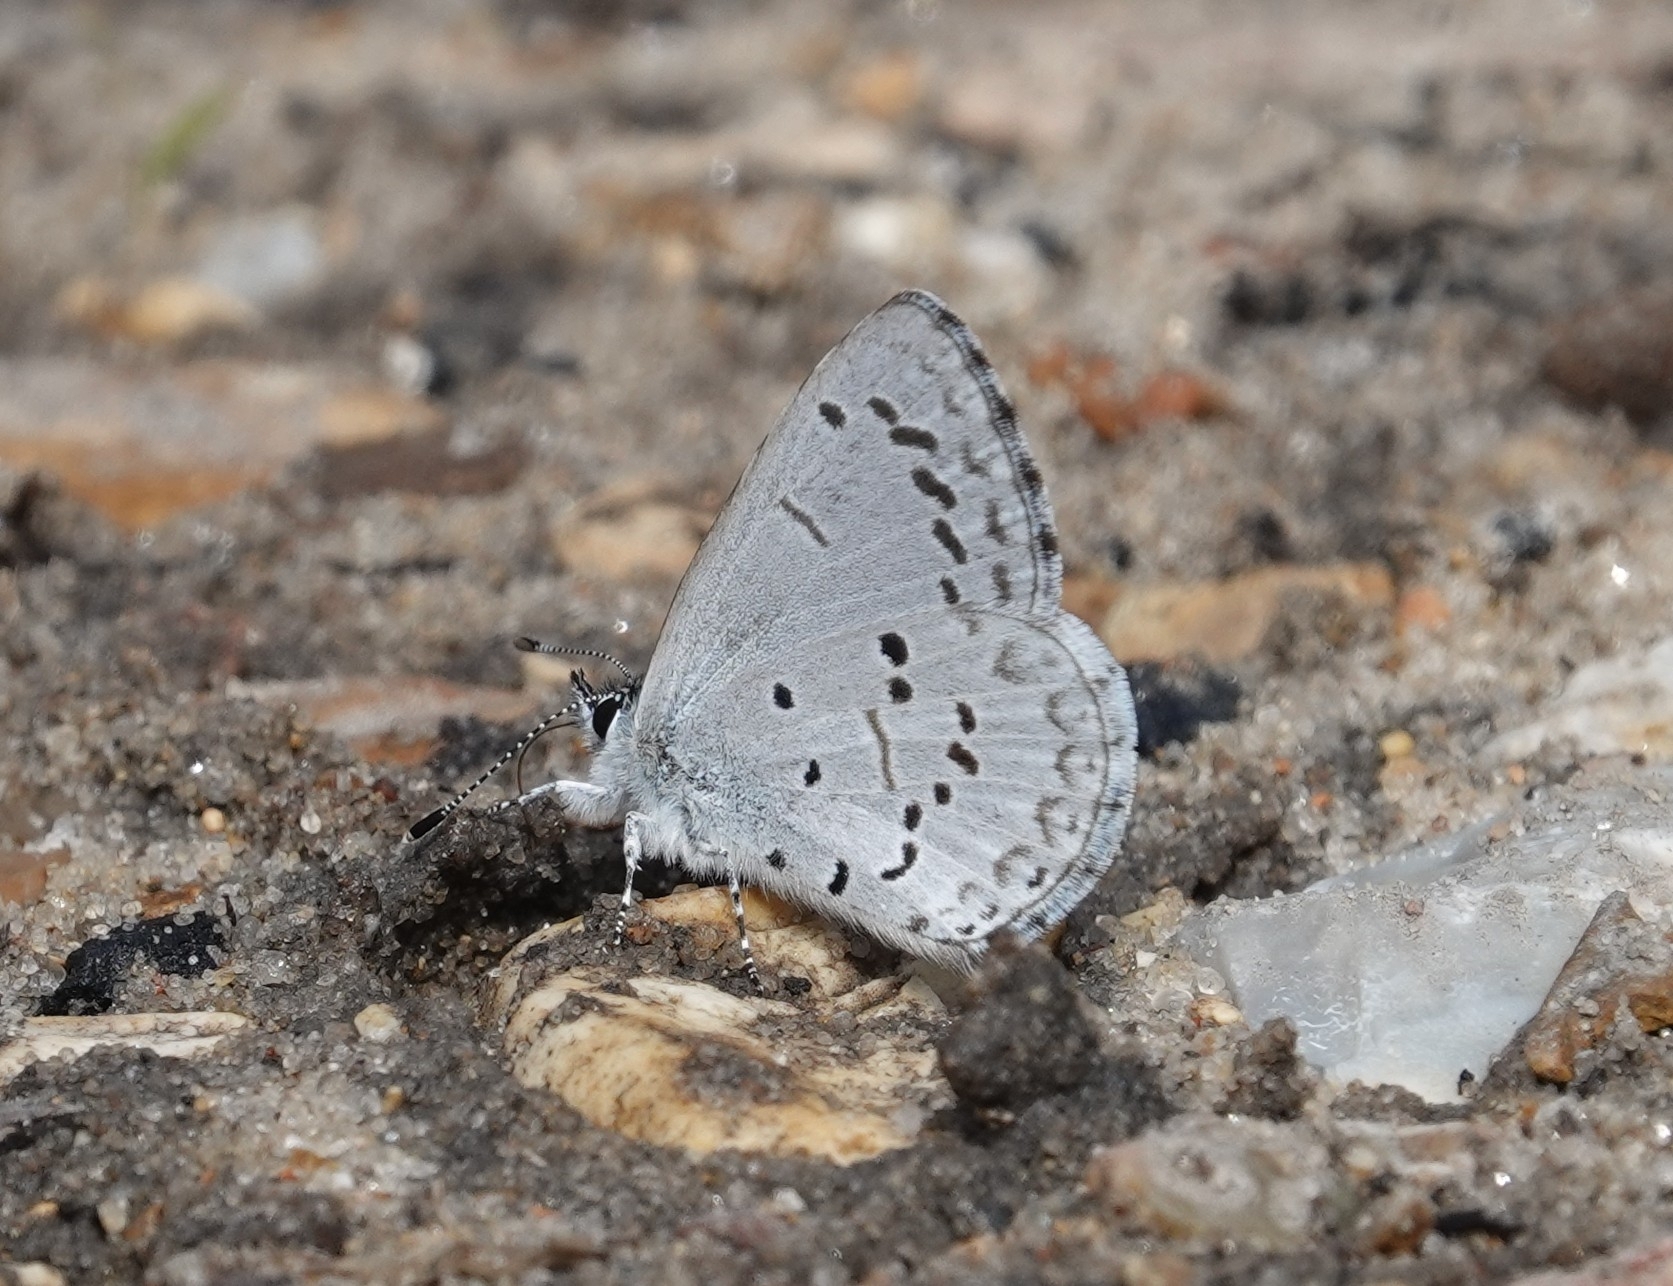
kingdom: Animalia
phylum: Arthropoda
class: Insecta
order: Lepidoptera
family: Lycaenidae
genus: Celastrina
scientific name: Celastrina ladon
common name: Spring azure
